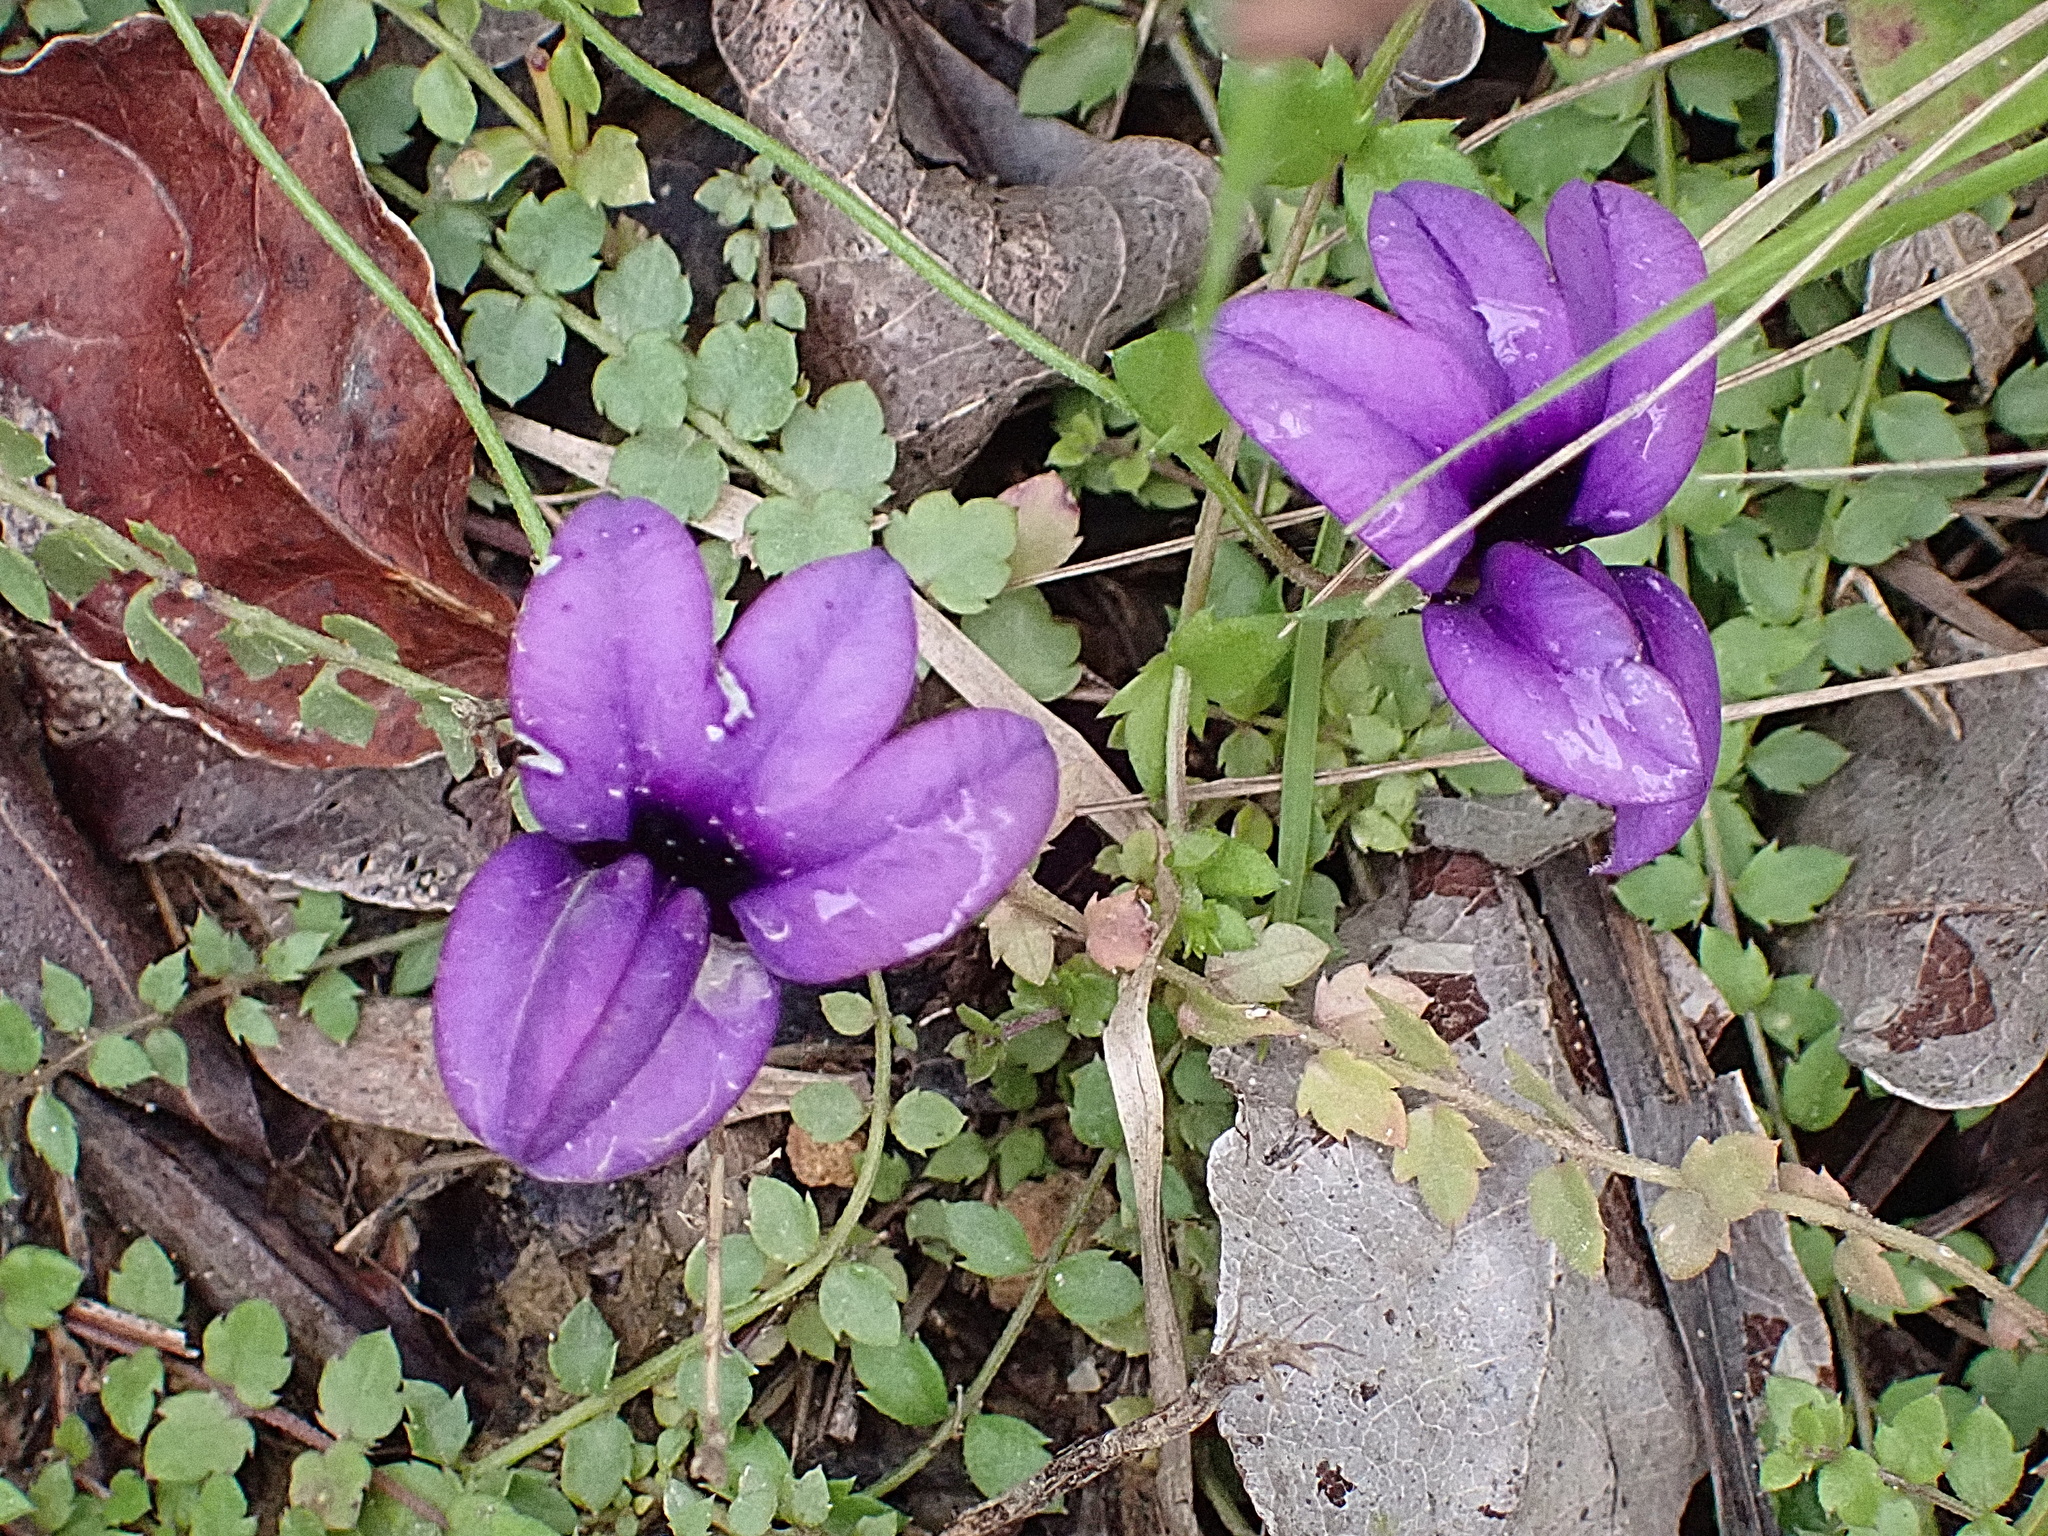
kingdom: Plantae
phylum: Tracheophyta
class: Magnoliopsida
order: Asterales
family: Campanulaceae
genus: Monopsis
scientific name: Monopsis unidentata
